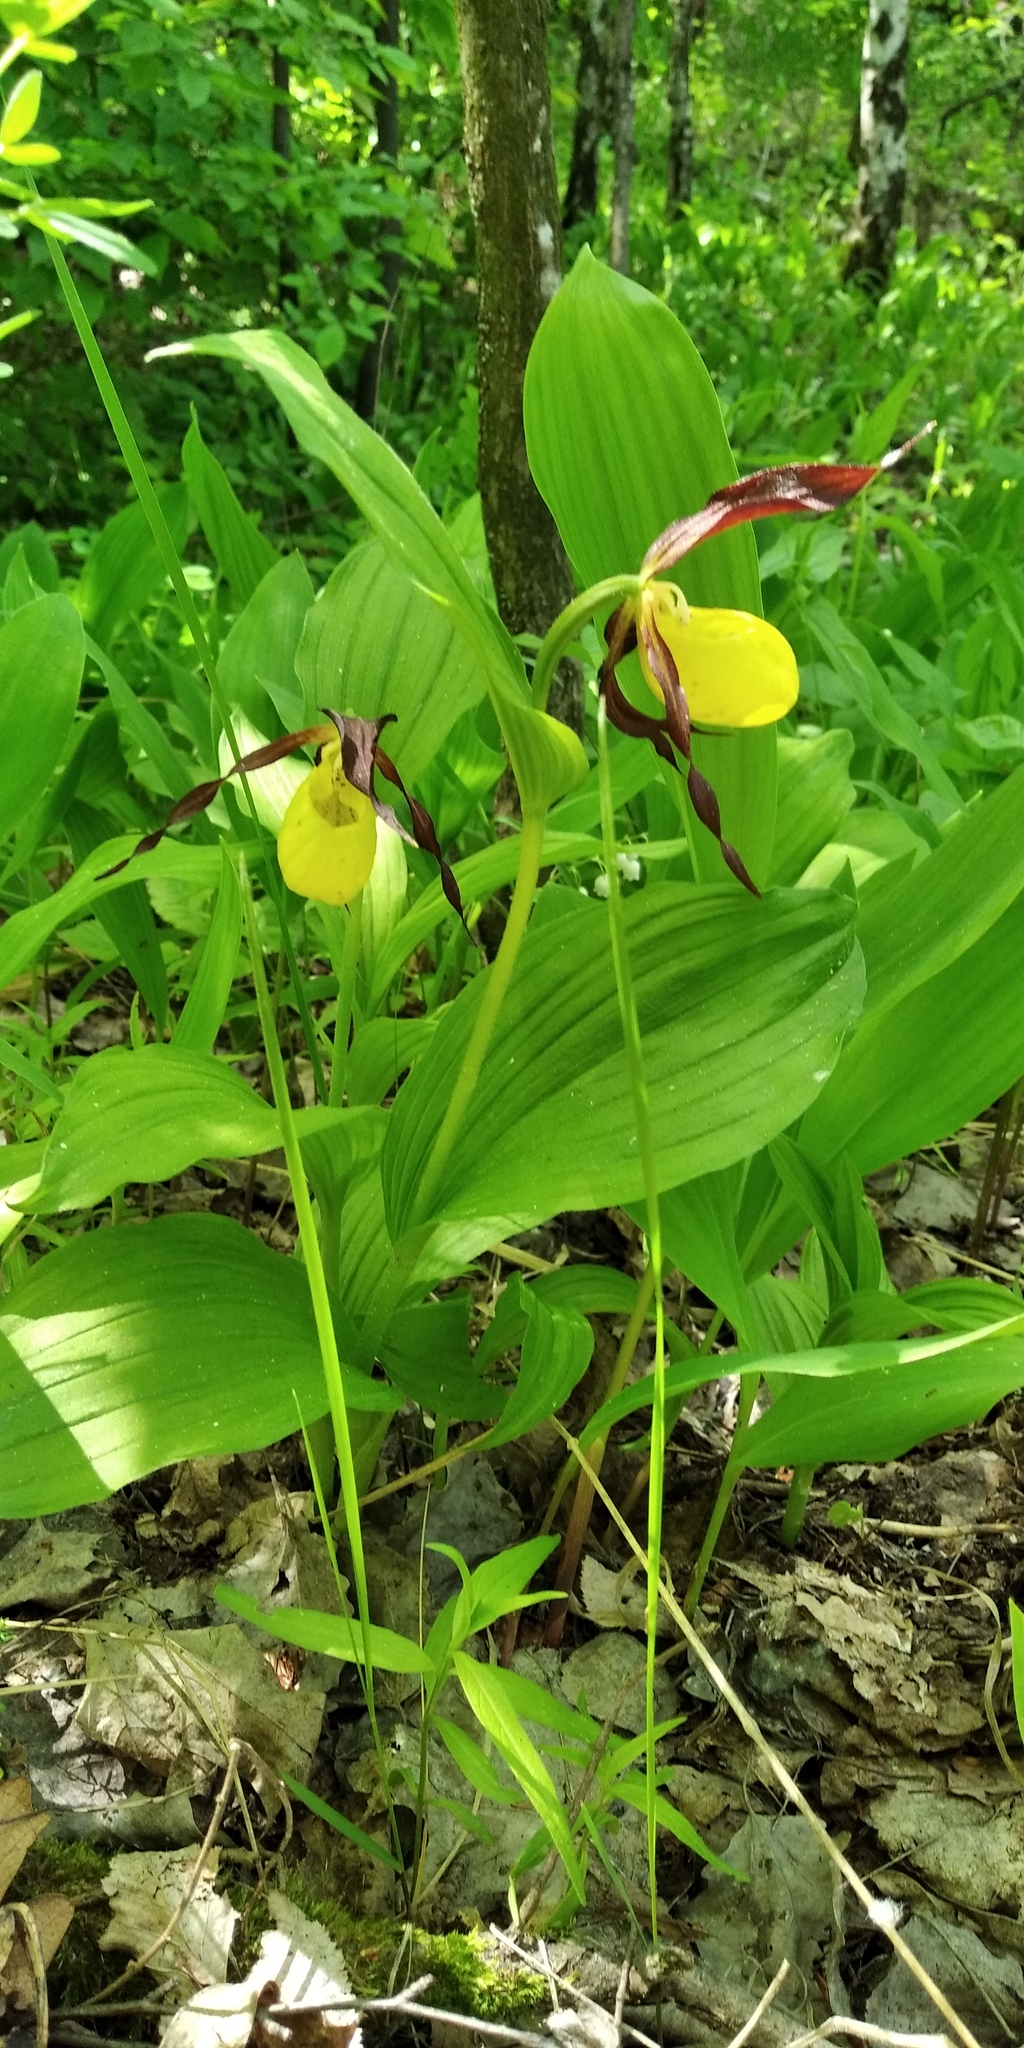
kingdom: Plantae
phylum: Tracheophyta
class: Liliopsida
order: Asparagales
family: Orchidaceae
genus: Cypripedium
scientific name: Cypripedium calceolus
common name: Lady's-slipper
